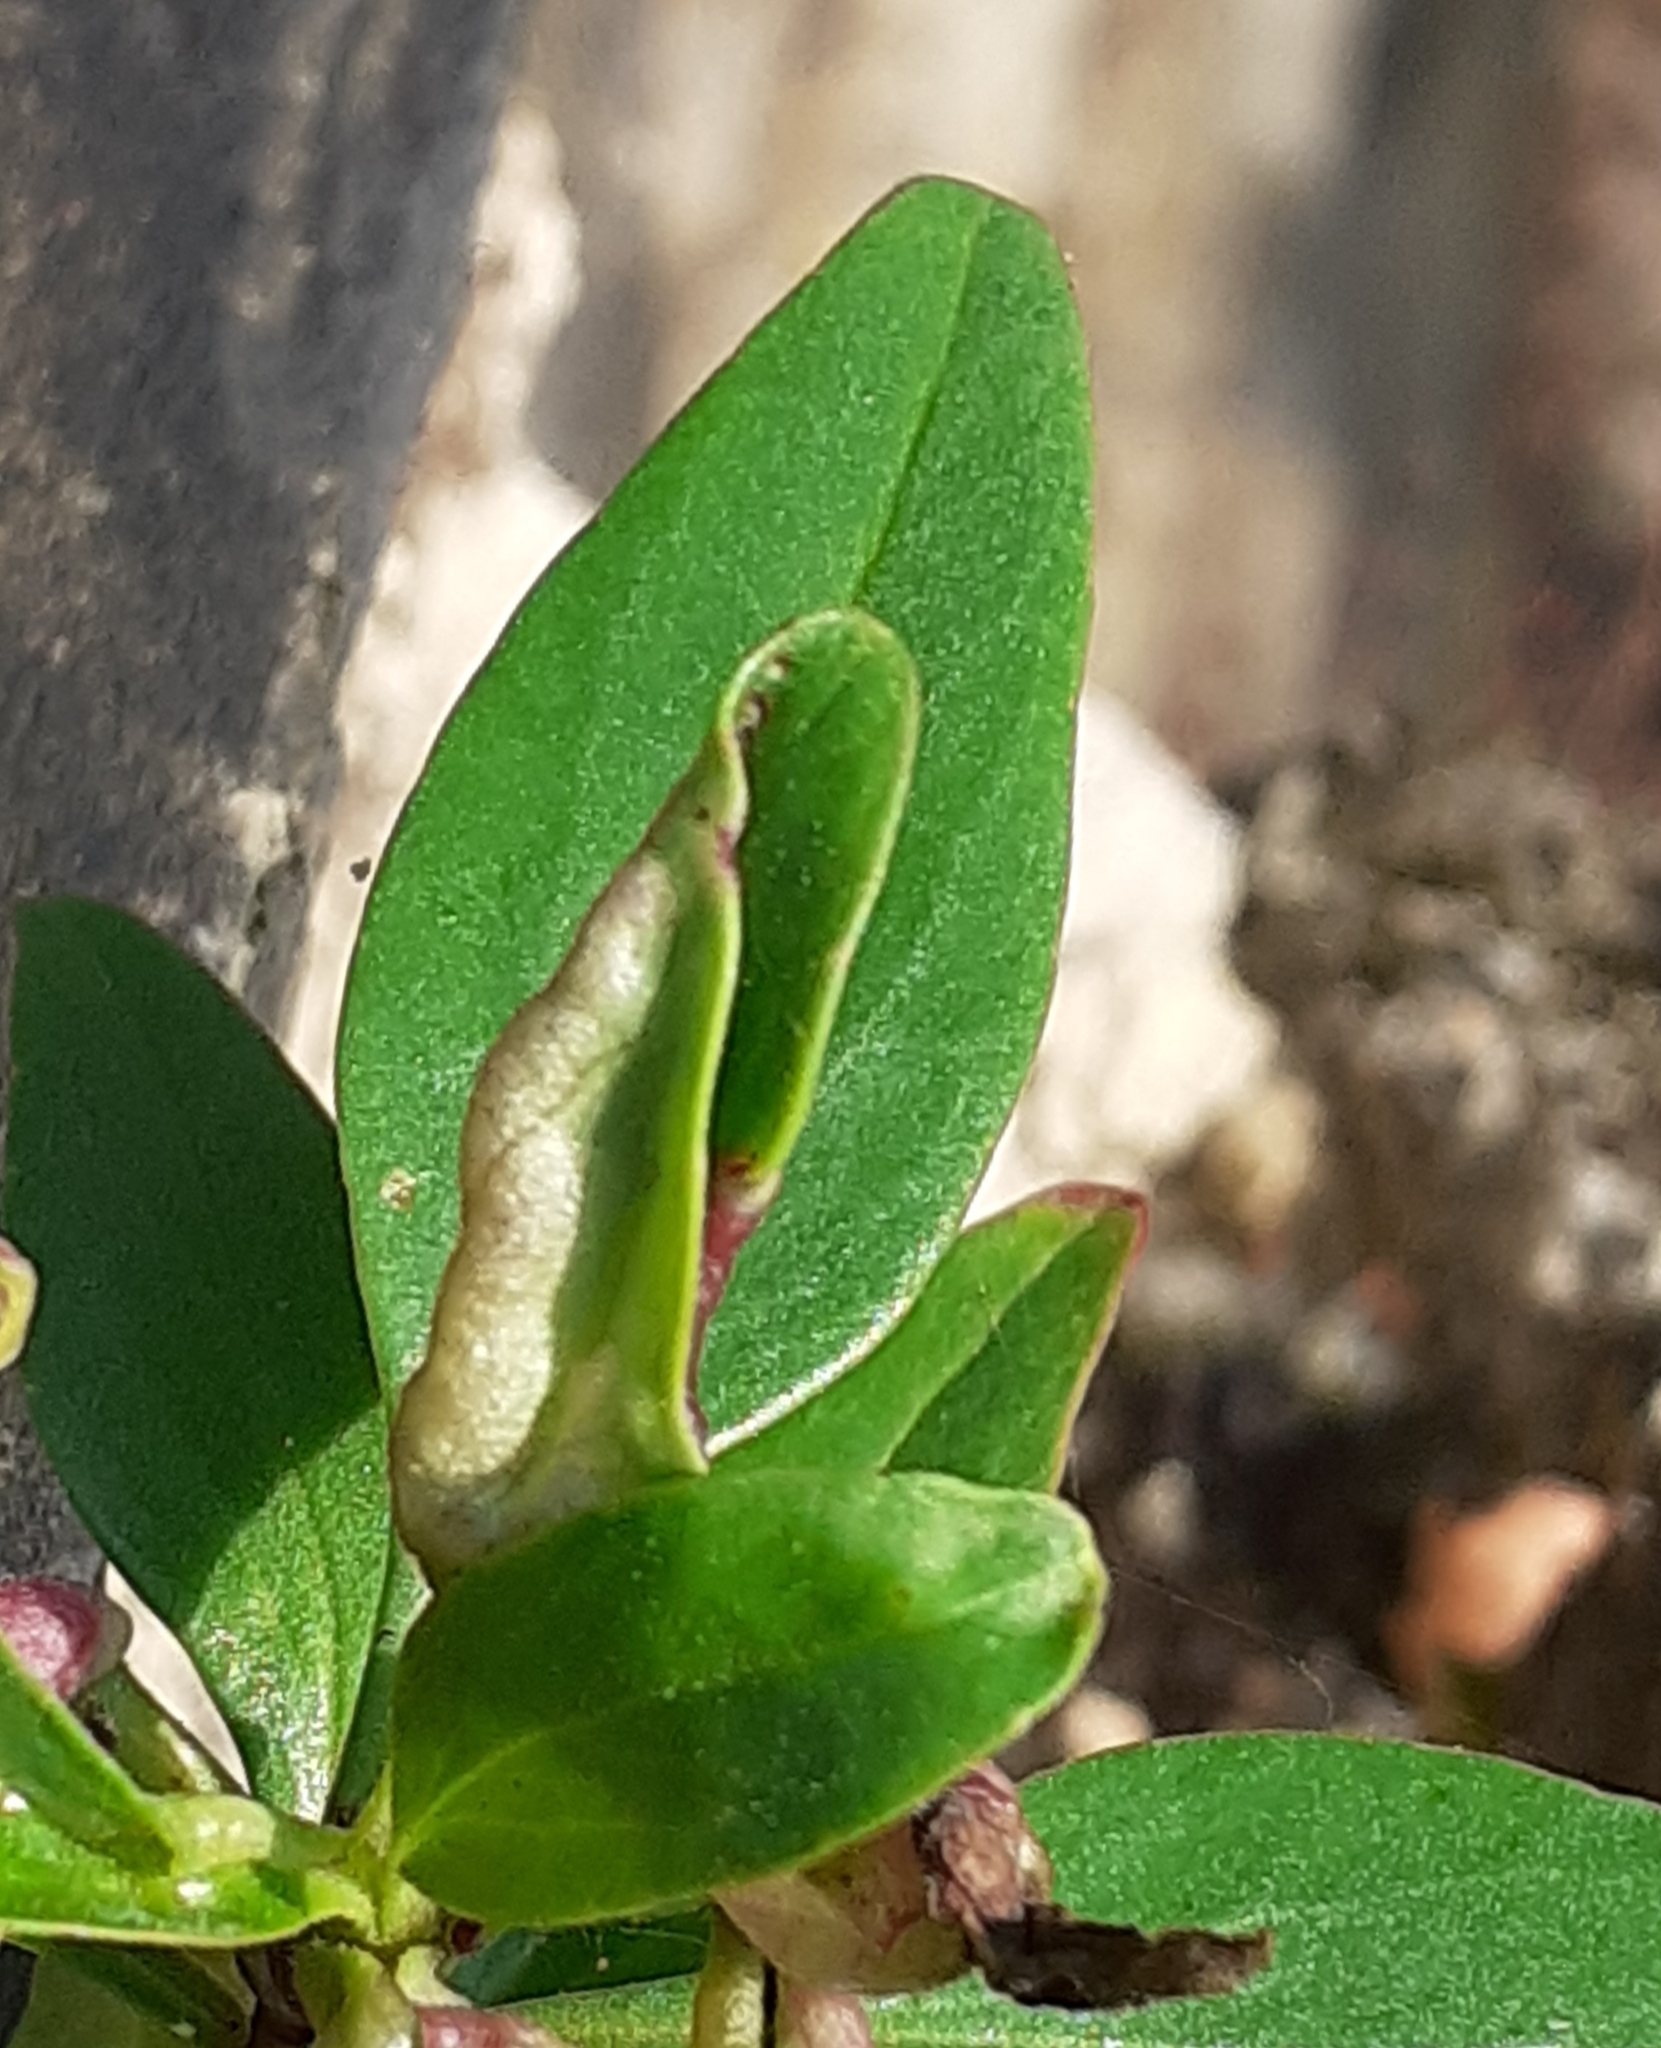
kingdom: Animalia
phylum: Arthropoda
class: Insecta
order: Hemiptera
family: Triozidae
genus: Trioza
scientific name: Trioza centranthi
